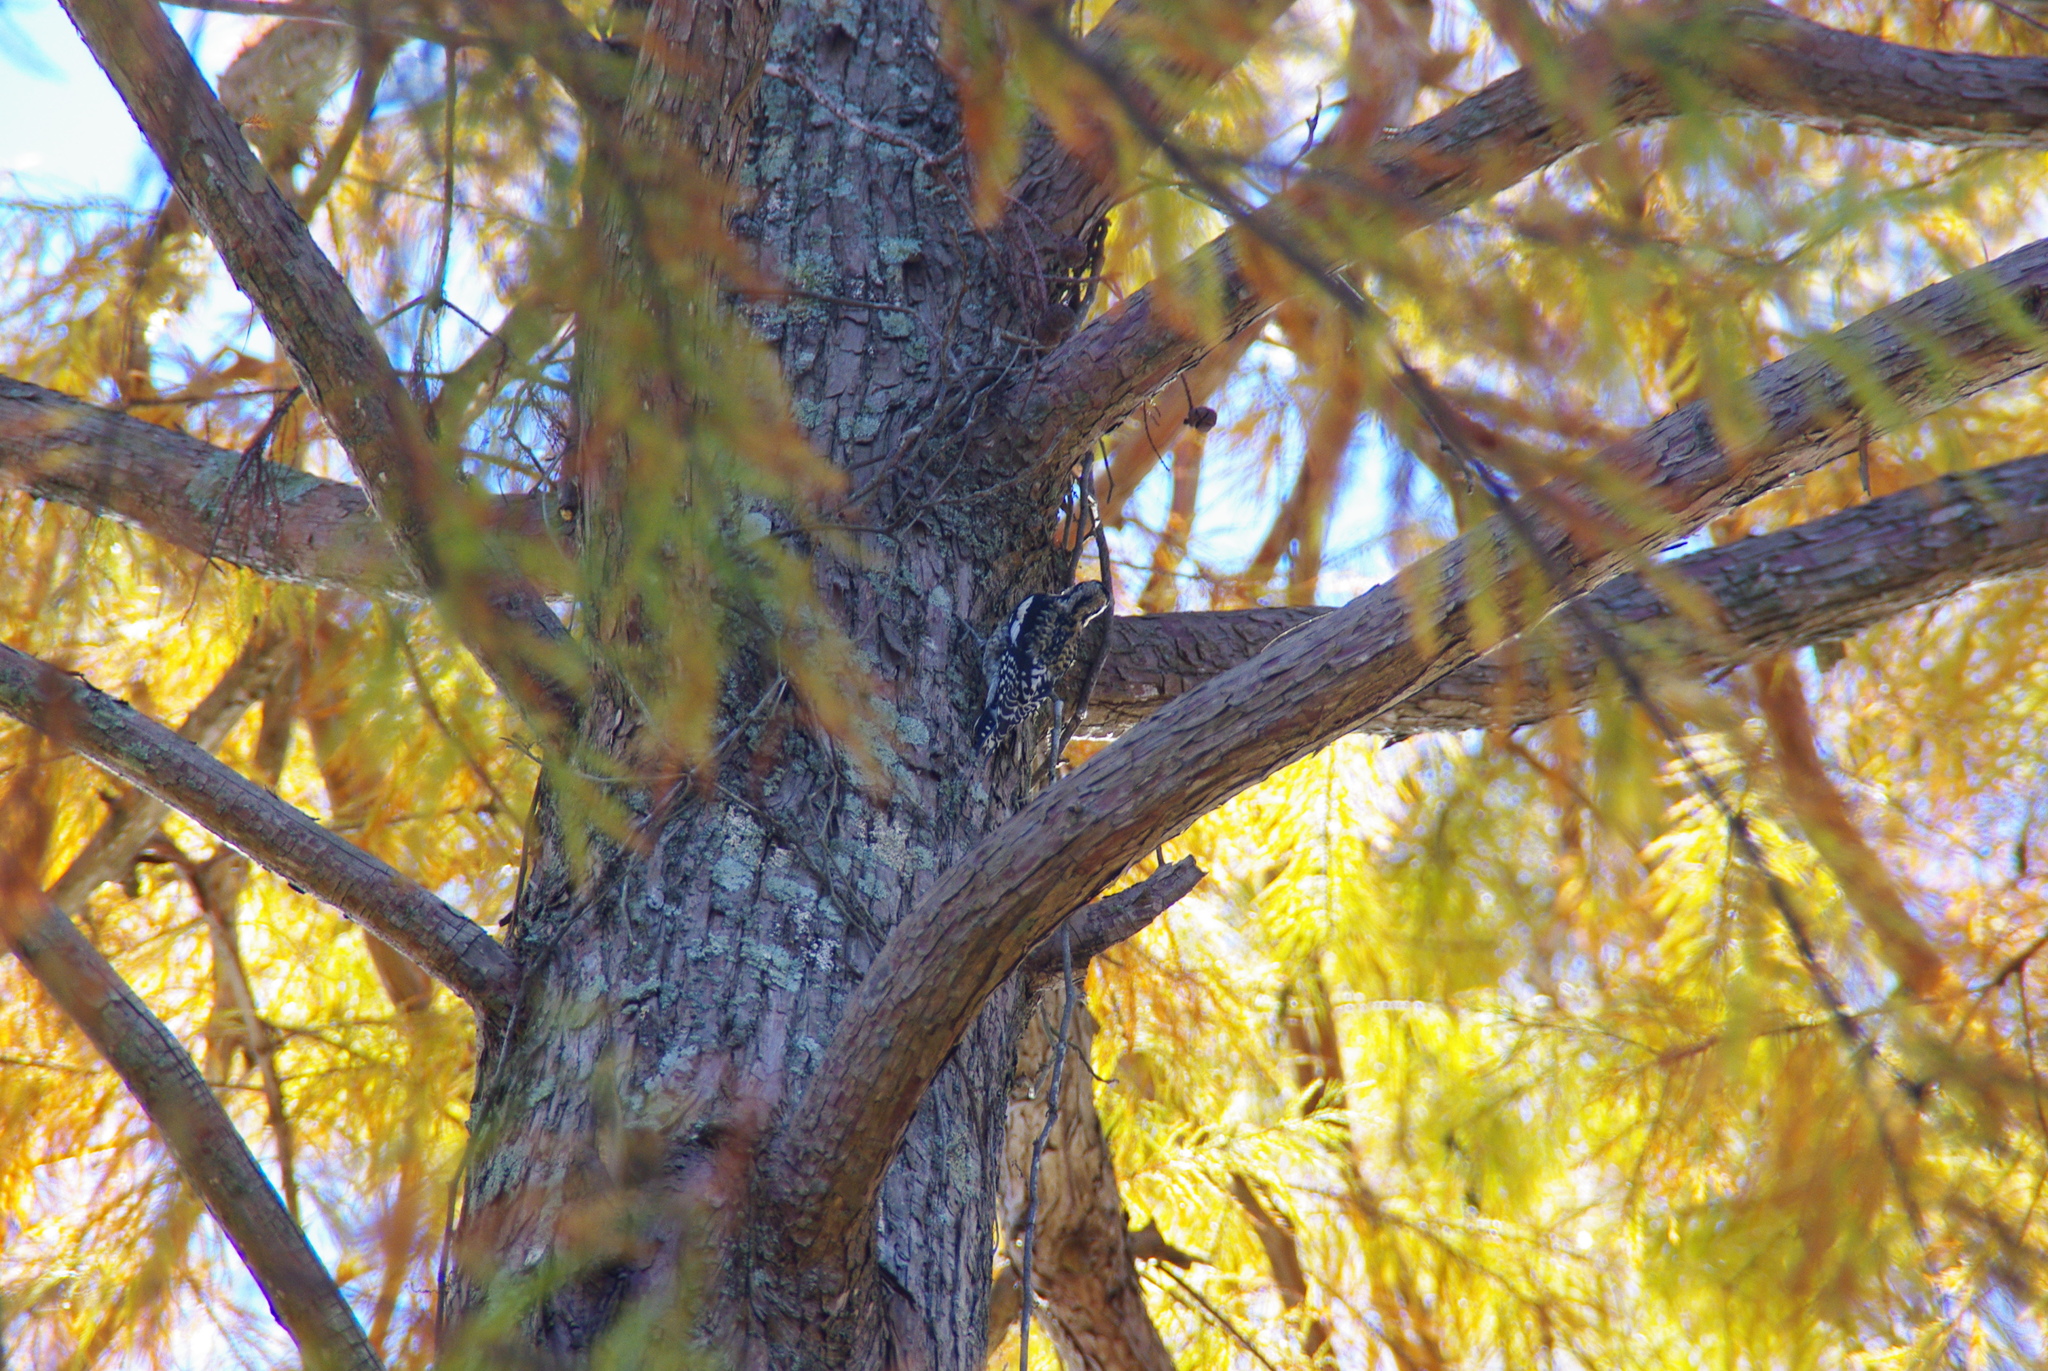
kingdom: Animalia
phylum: Chordata
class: Aves
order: Piciformes
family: Picidae
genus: Sphyrapicus
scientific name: Sphyrapicus varius
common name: Yellow-bellied sapsucker
